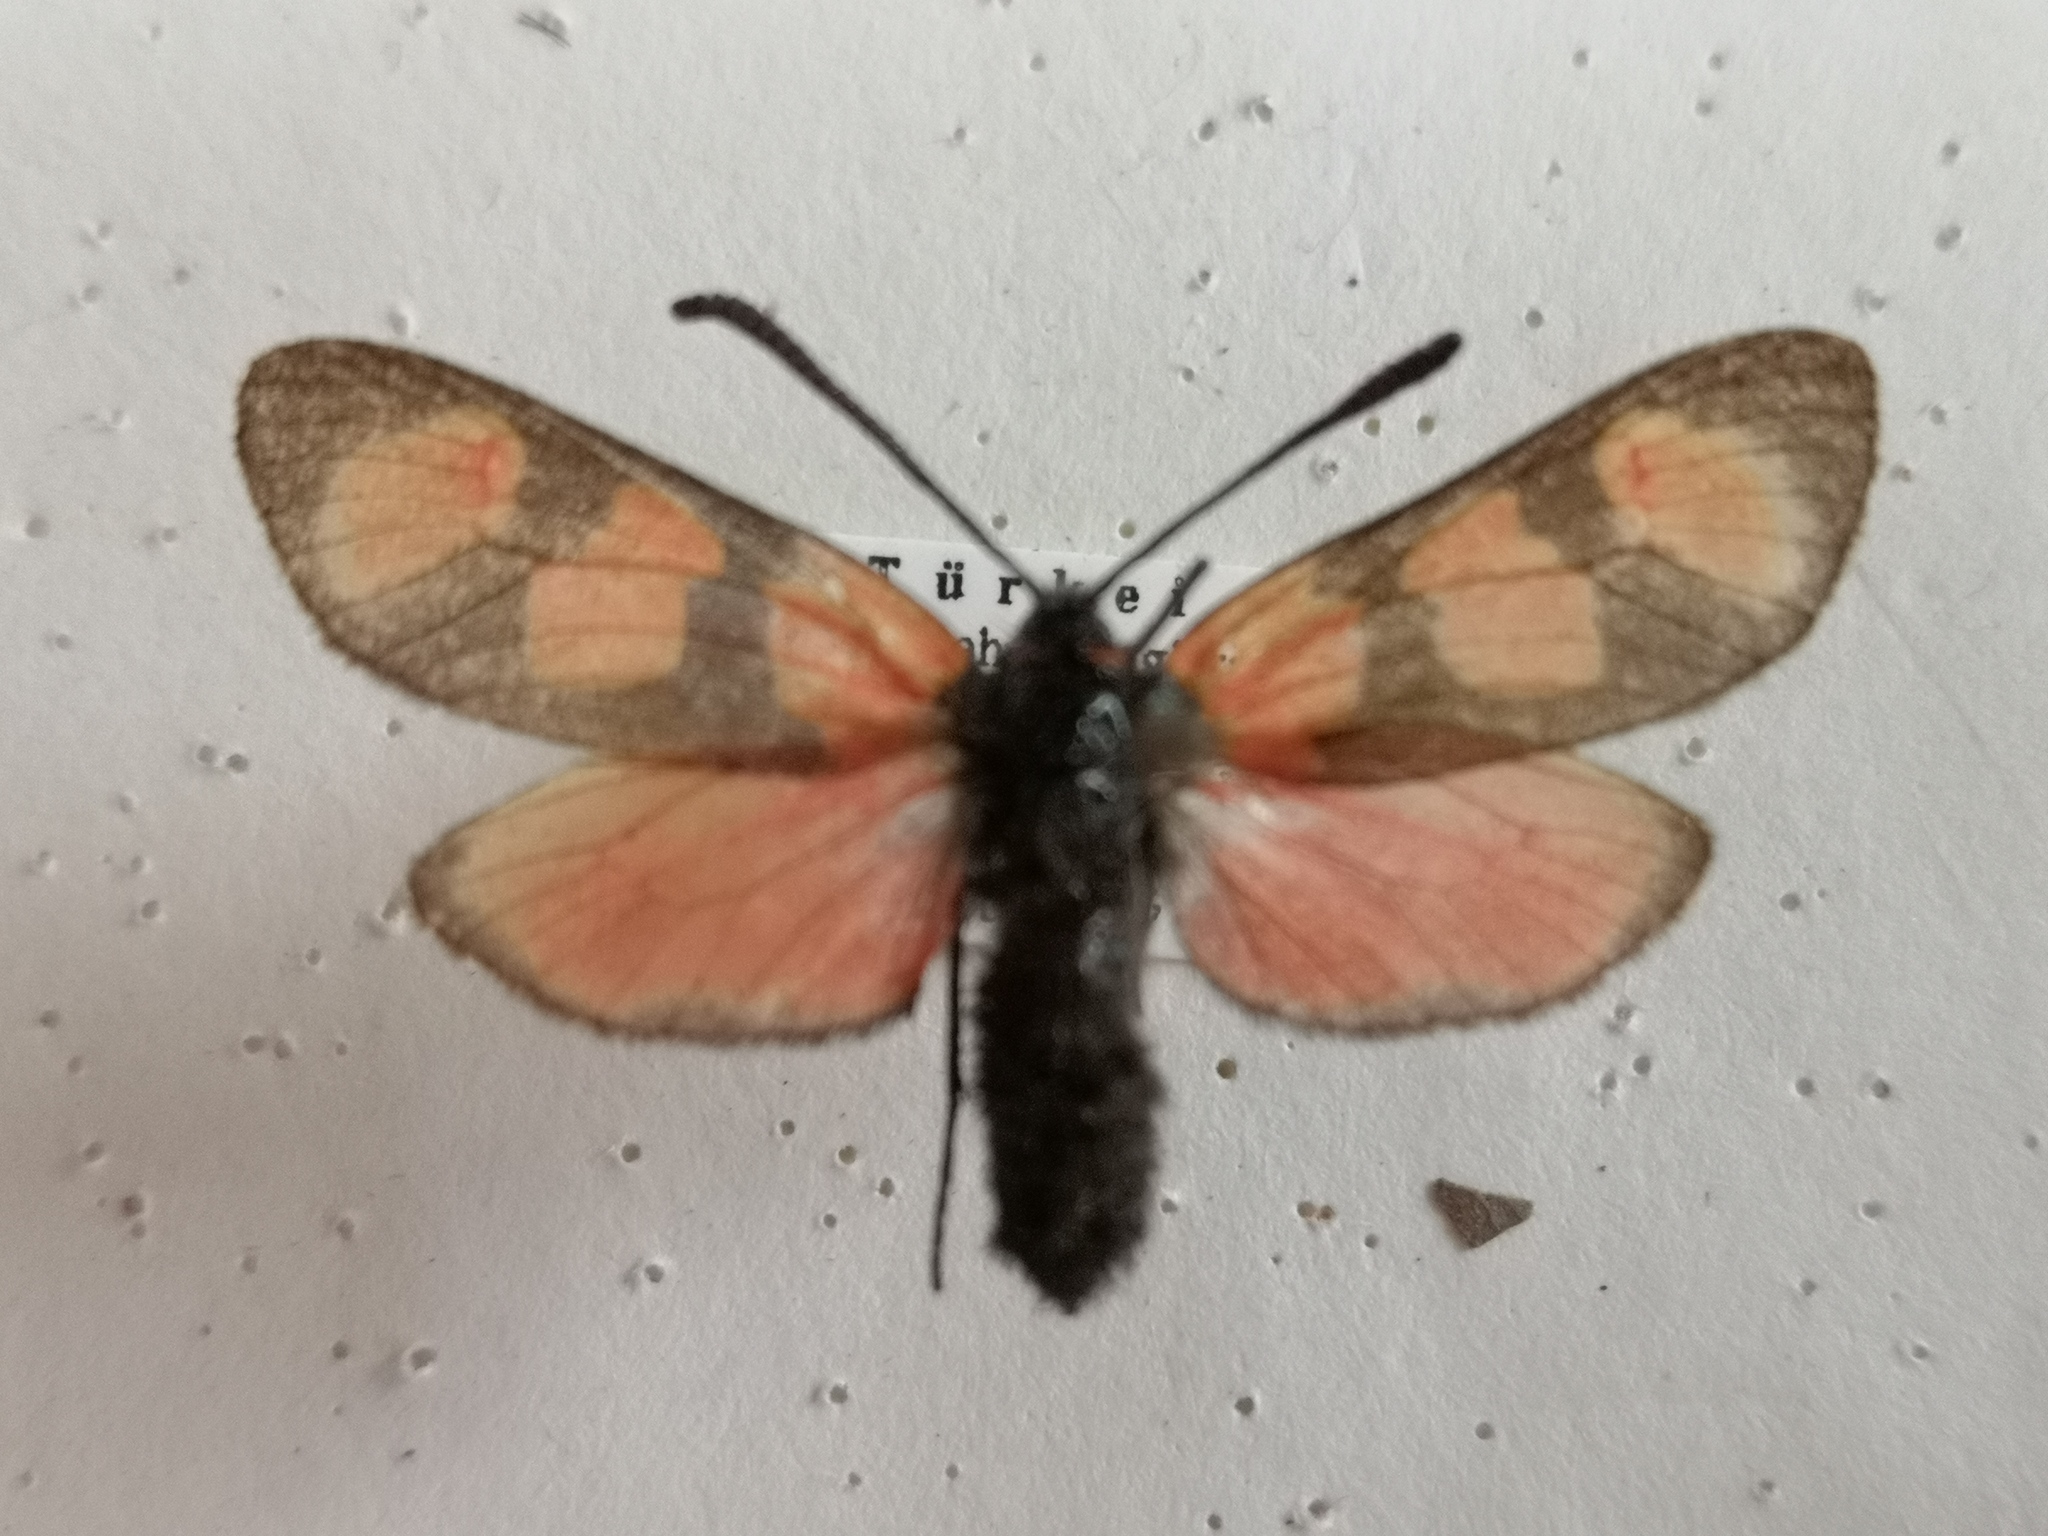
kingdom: Animalia
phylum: Arthropoda
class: Insecta
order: Lepidoptera
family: Zygaenidae
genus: Zygaena
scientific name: Zygaena lydia
